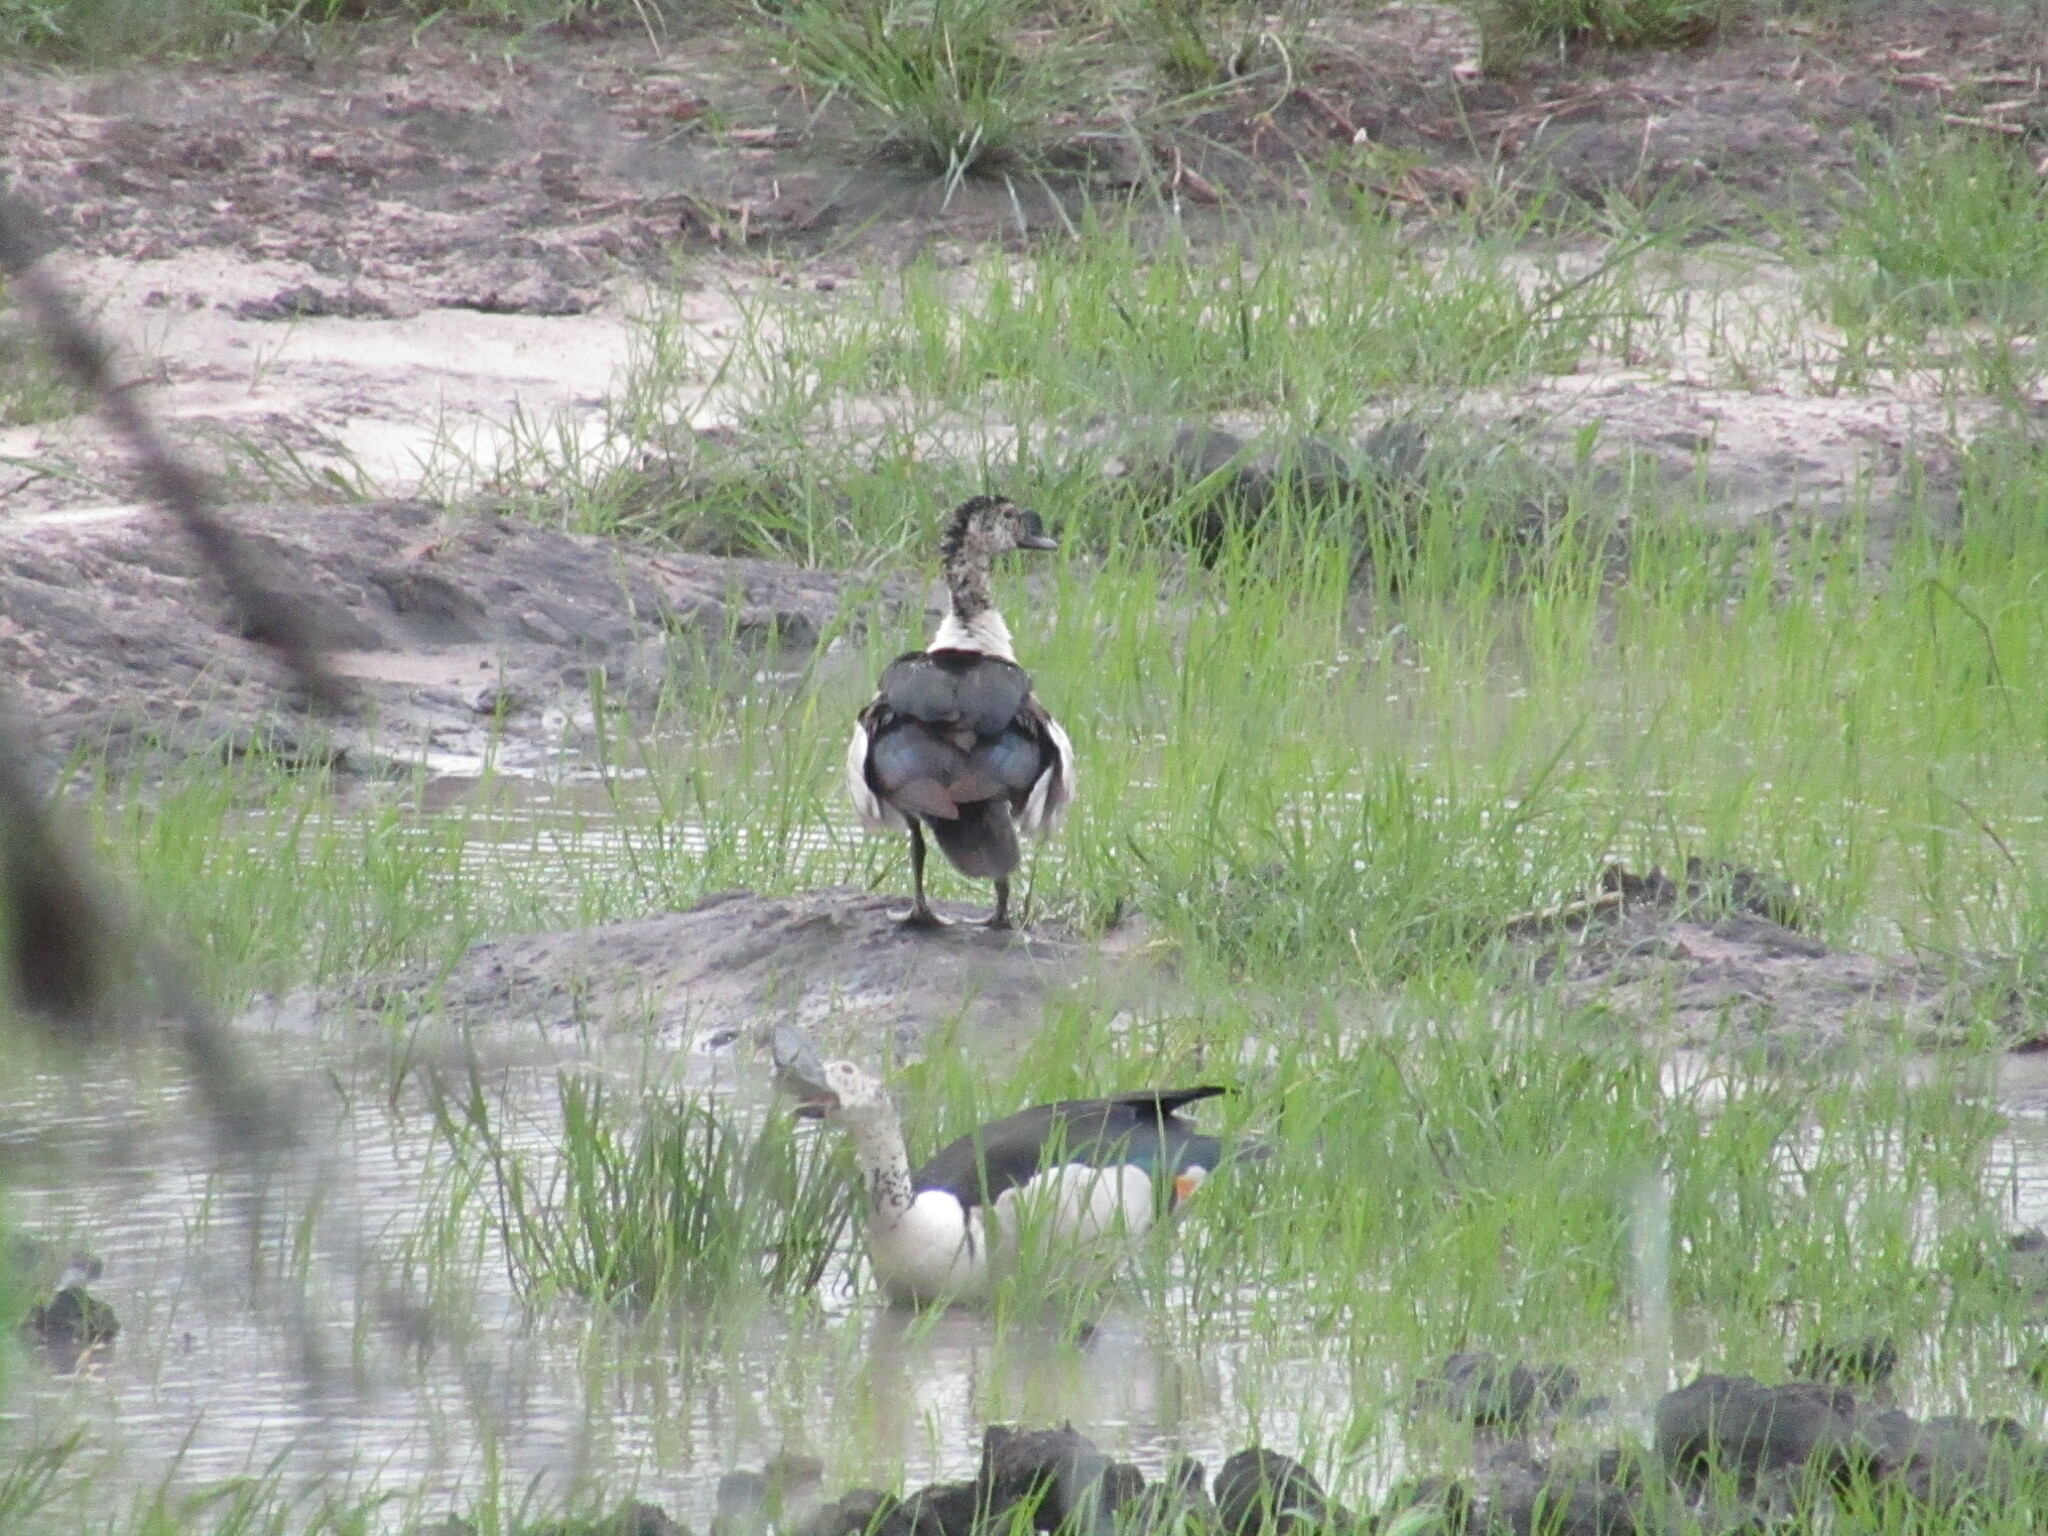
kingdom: Animalia
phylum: Chordata
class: Aves
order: Anseriformes
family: Anatidae
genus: Sarkidiornis
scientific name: Sarkidiornis melanotos
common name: Comb duck
